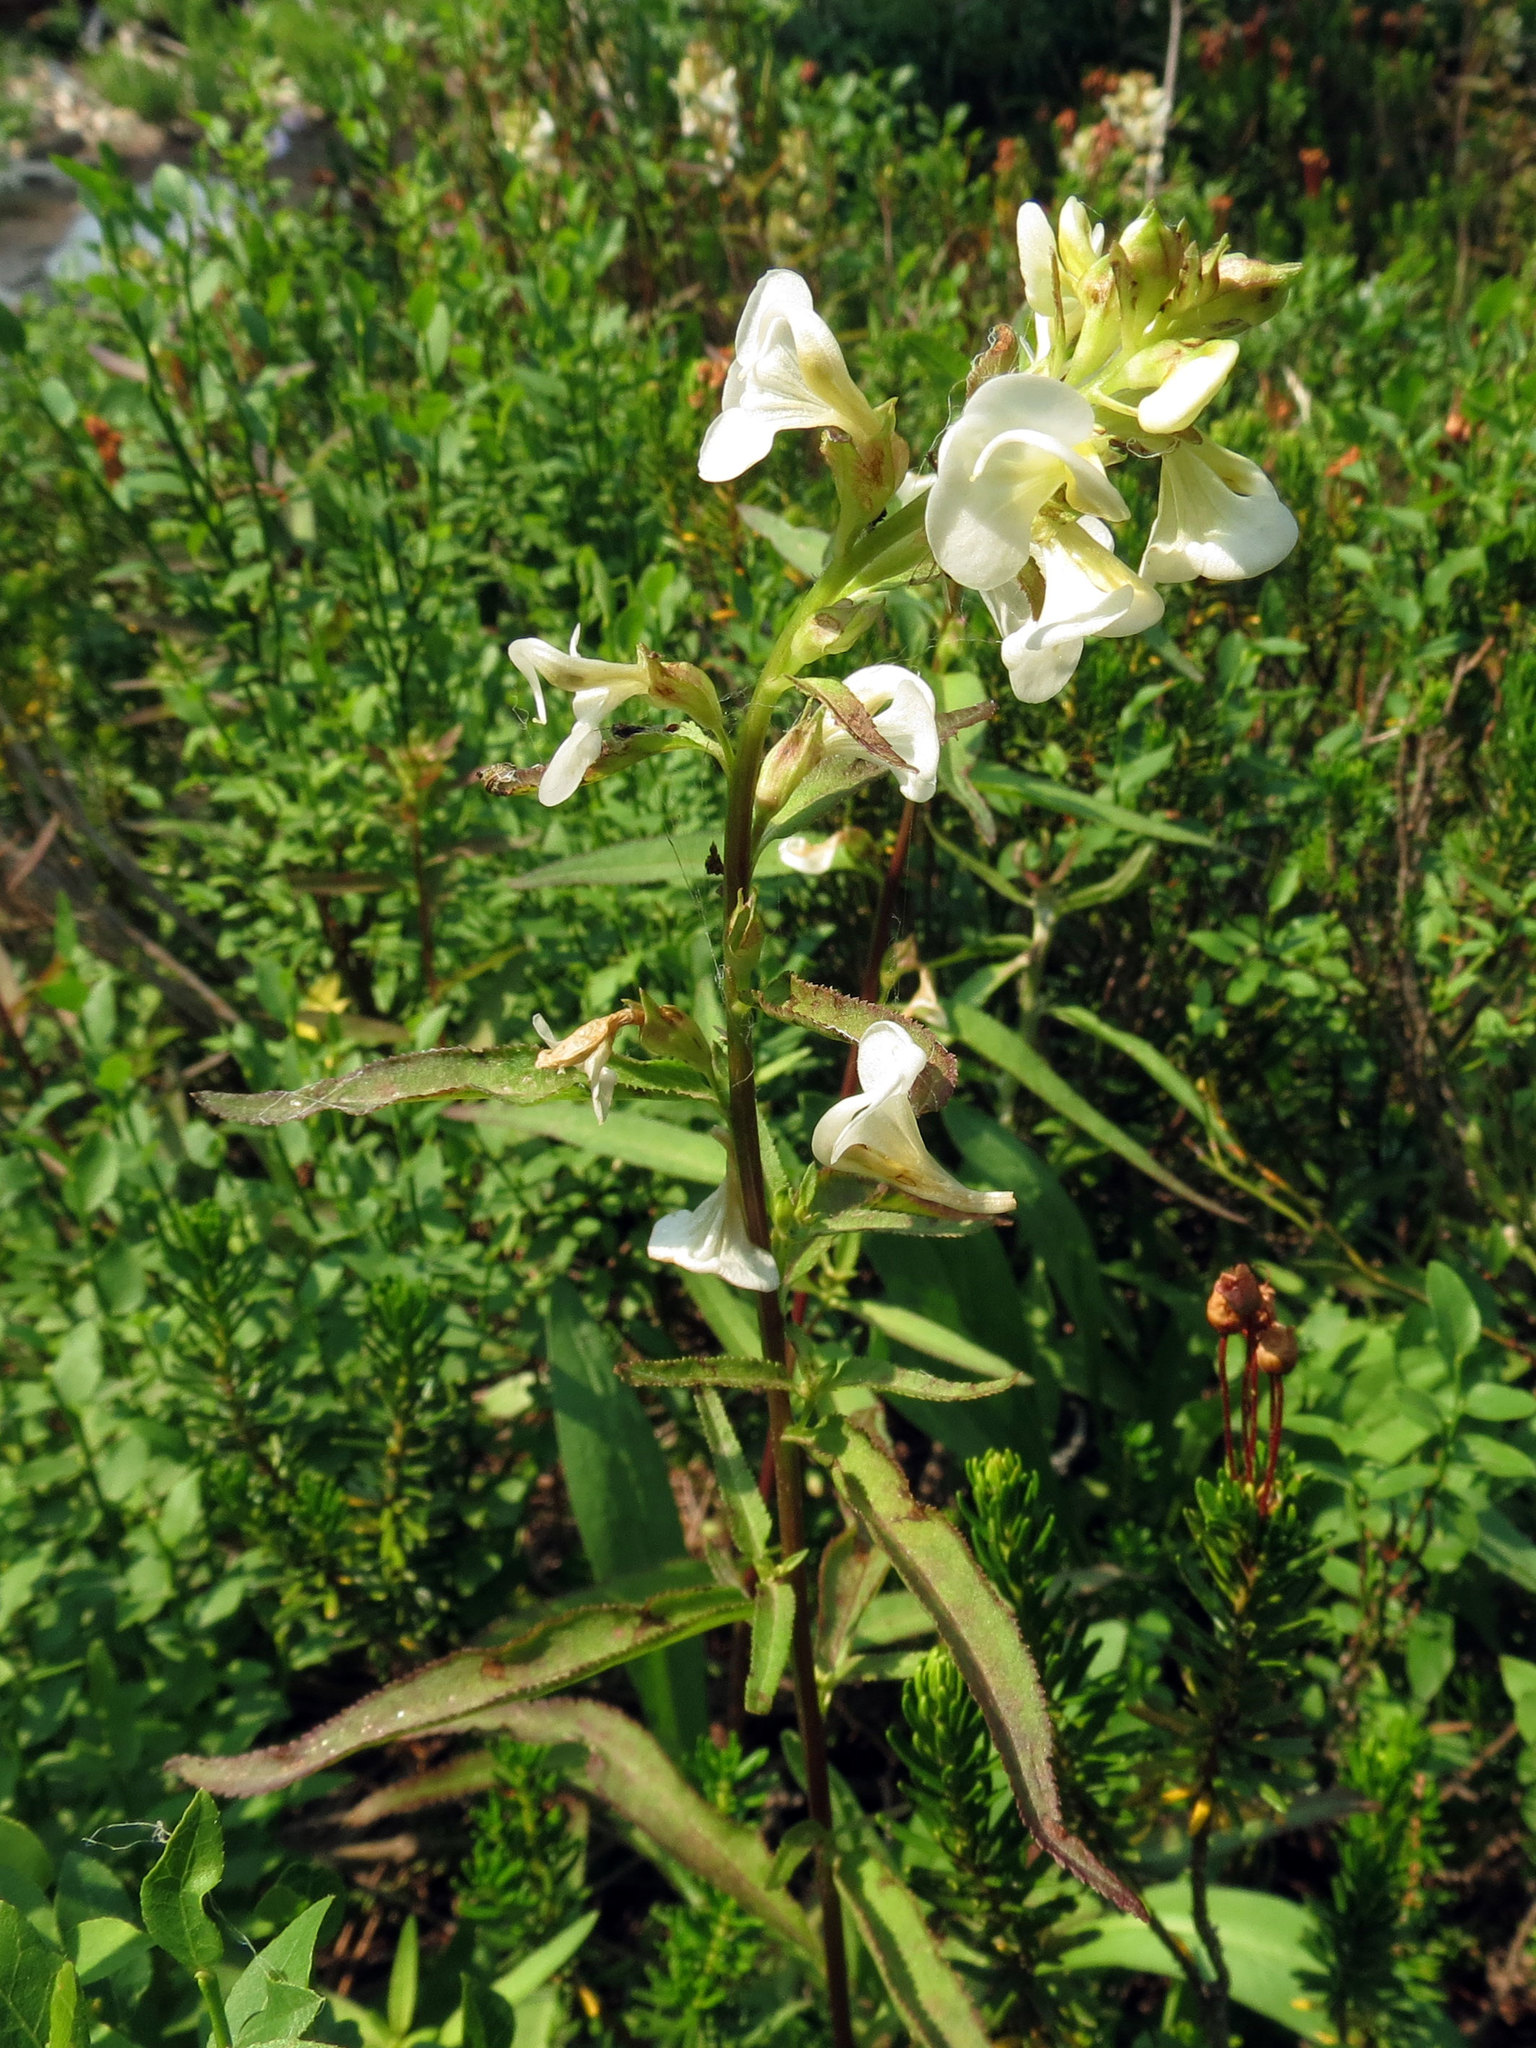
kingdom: Plantae
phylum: Tracheophyta
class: Magnoliopsida
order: Lamiales
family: Orobanchaceae
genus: Pedicularis
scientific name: Pedicularis racemosa
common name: Leafy lousewort
